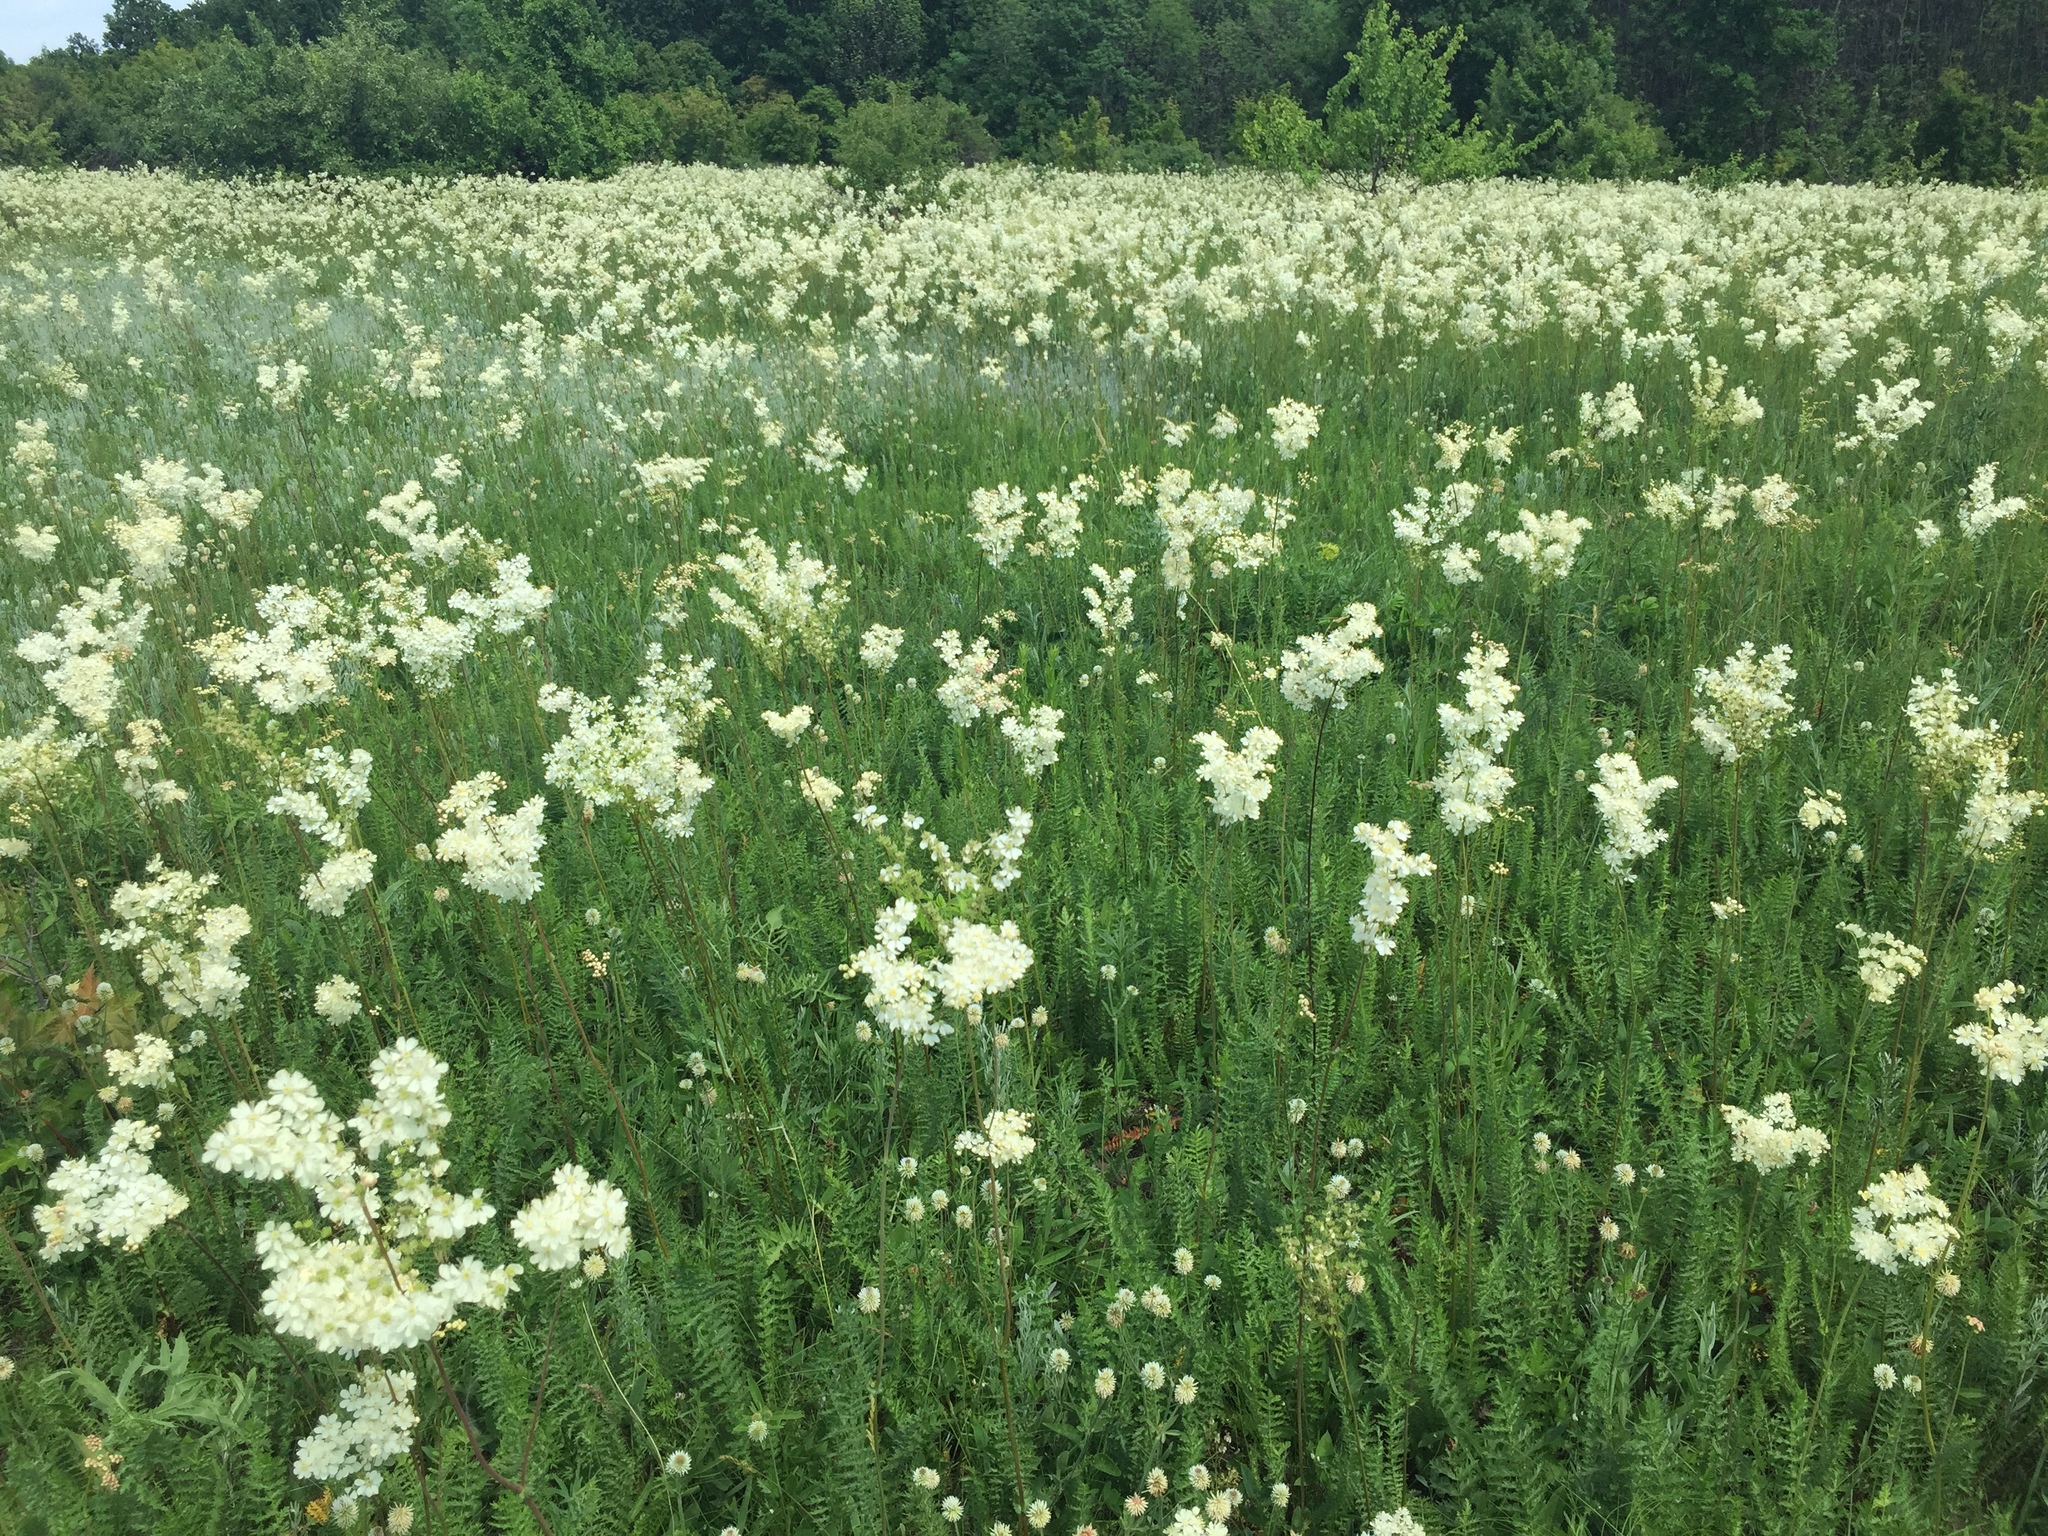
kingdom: Plantae
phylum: Tracheophyta
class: Magnoliopsida
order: Rosales
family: Rosaceae
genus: Filipendula
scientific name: Filipendula vulgaris
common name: Dropwort
